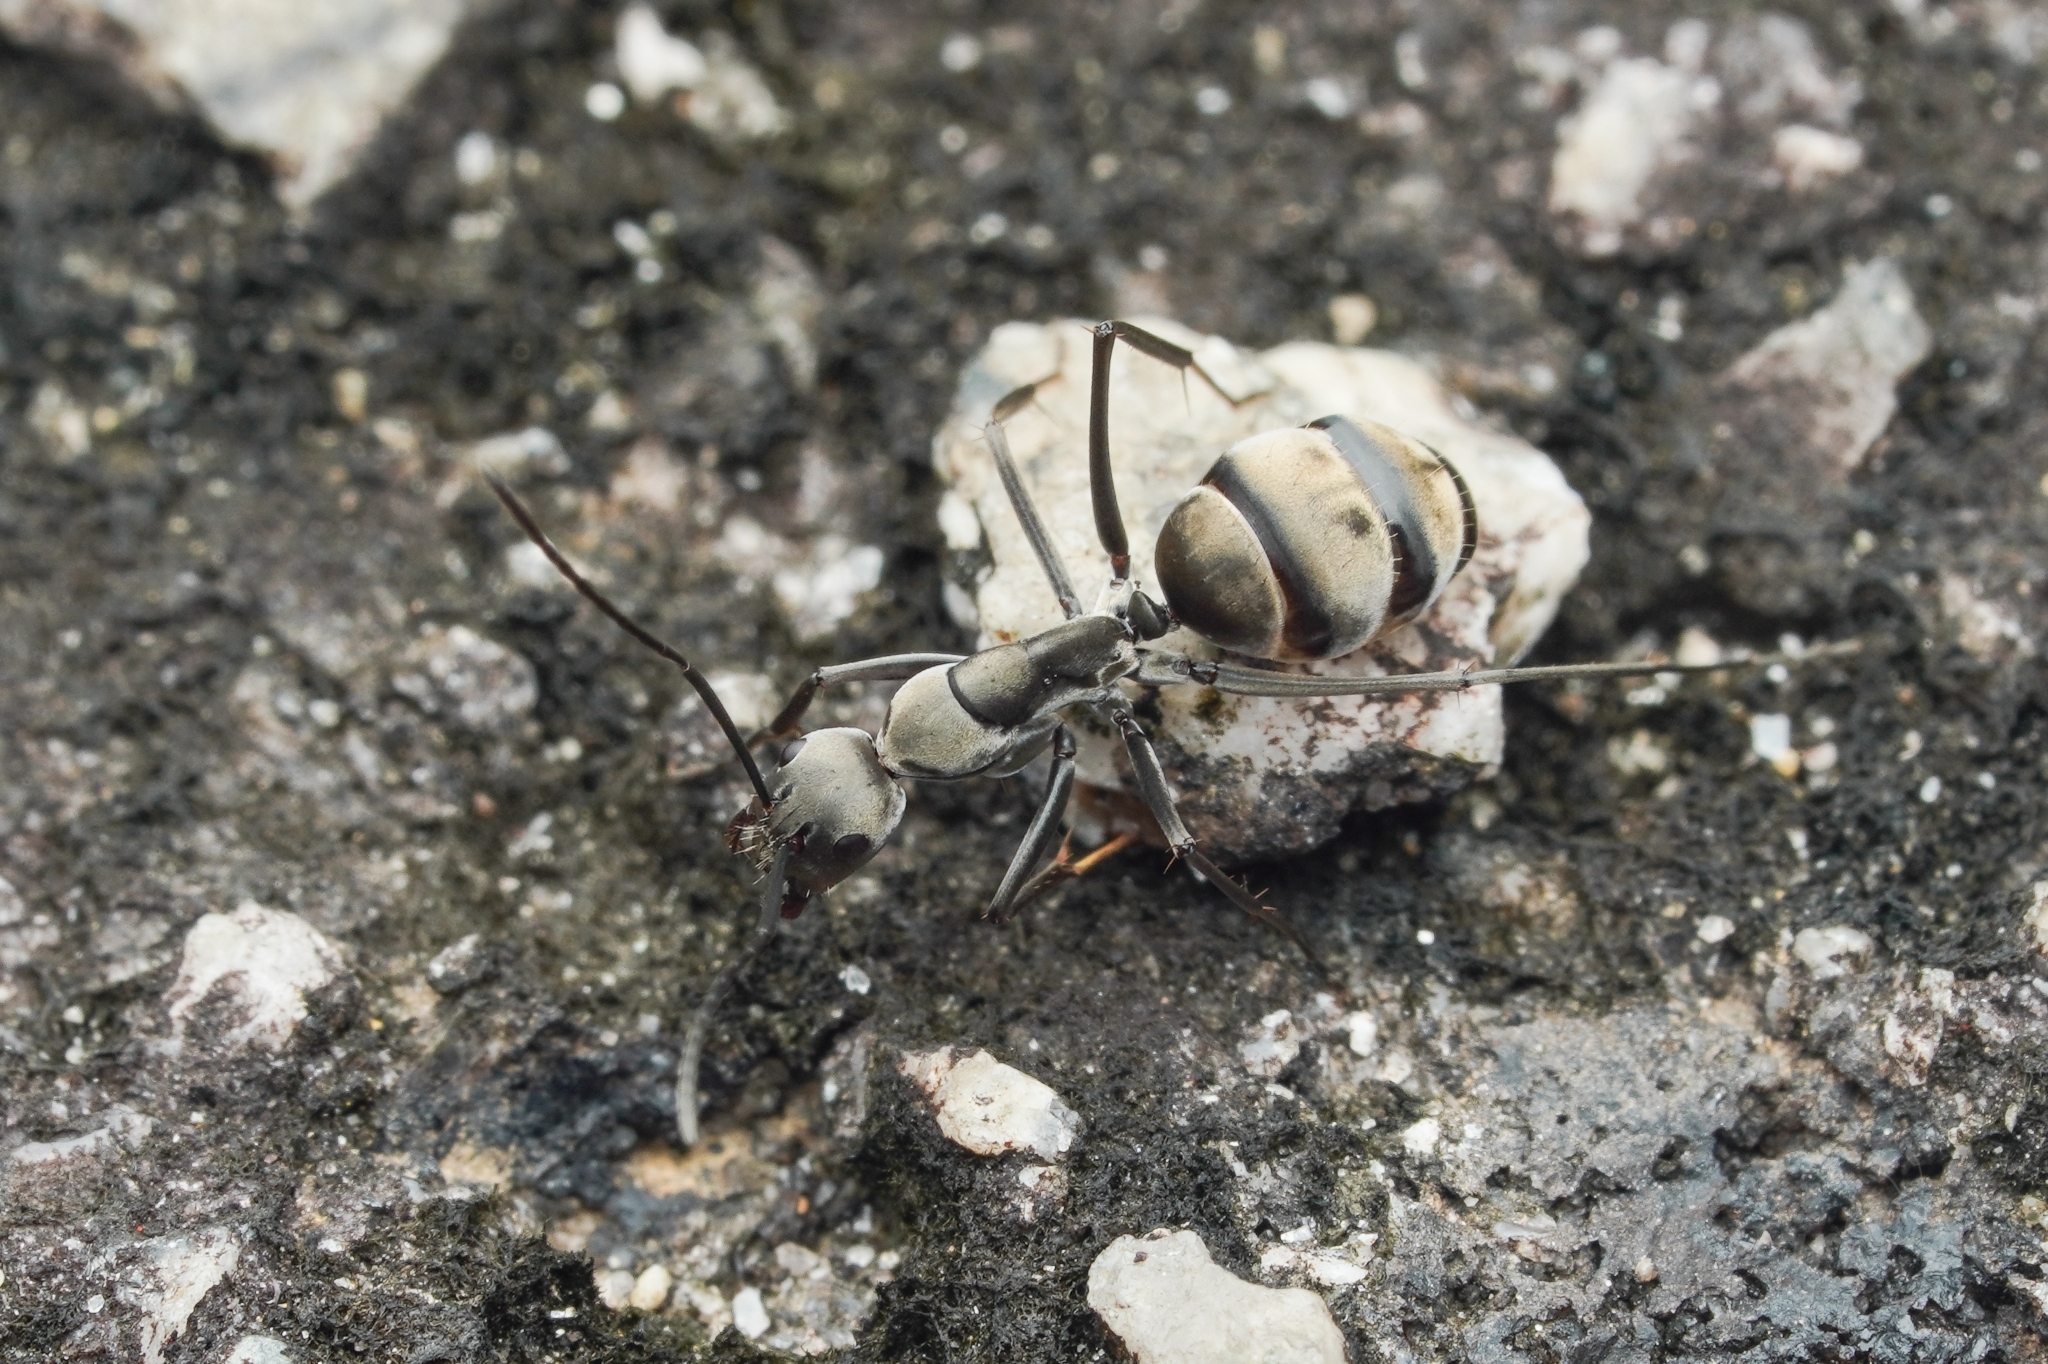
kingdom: Animalia
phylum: Arthropoda
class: Insecta
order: Hymenoptera
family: Formicidae
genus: Camponotus
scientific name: Camponotus parius
